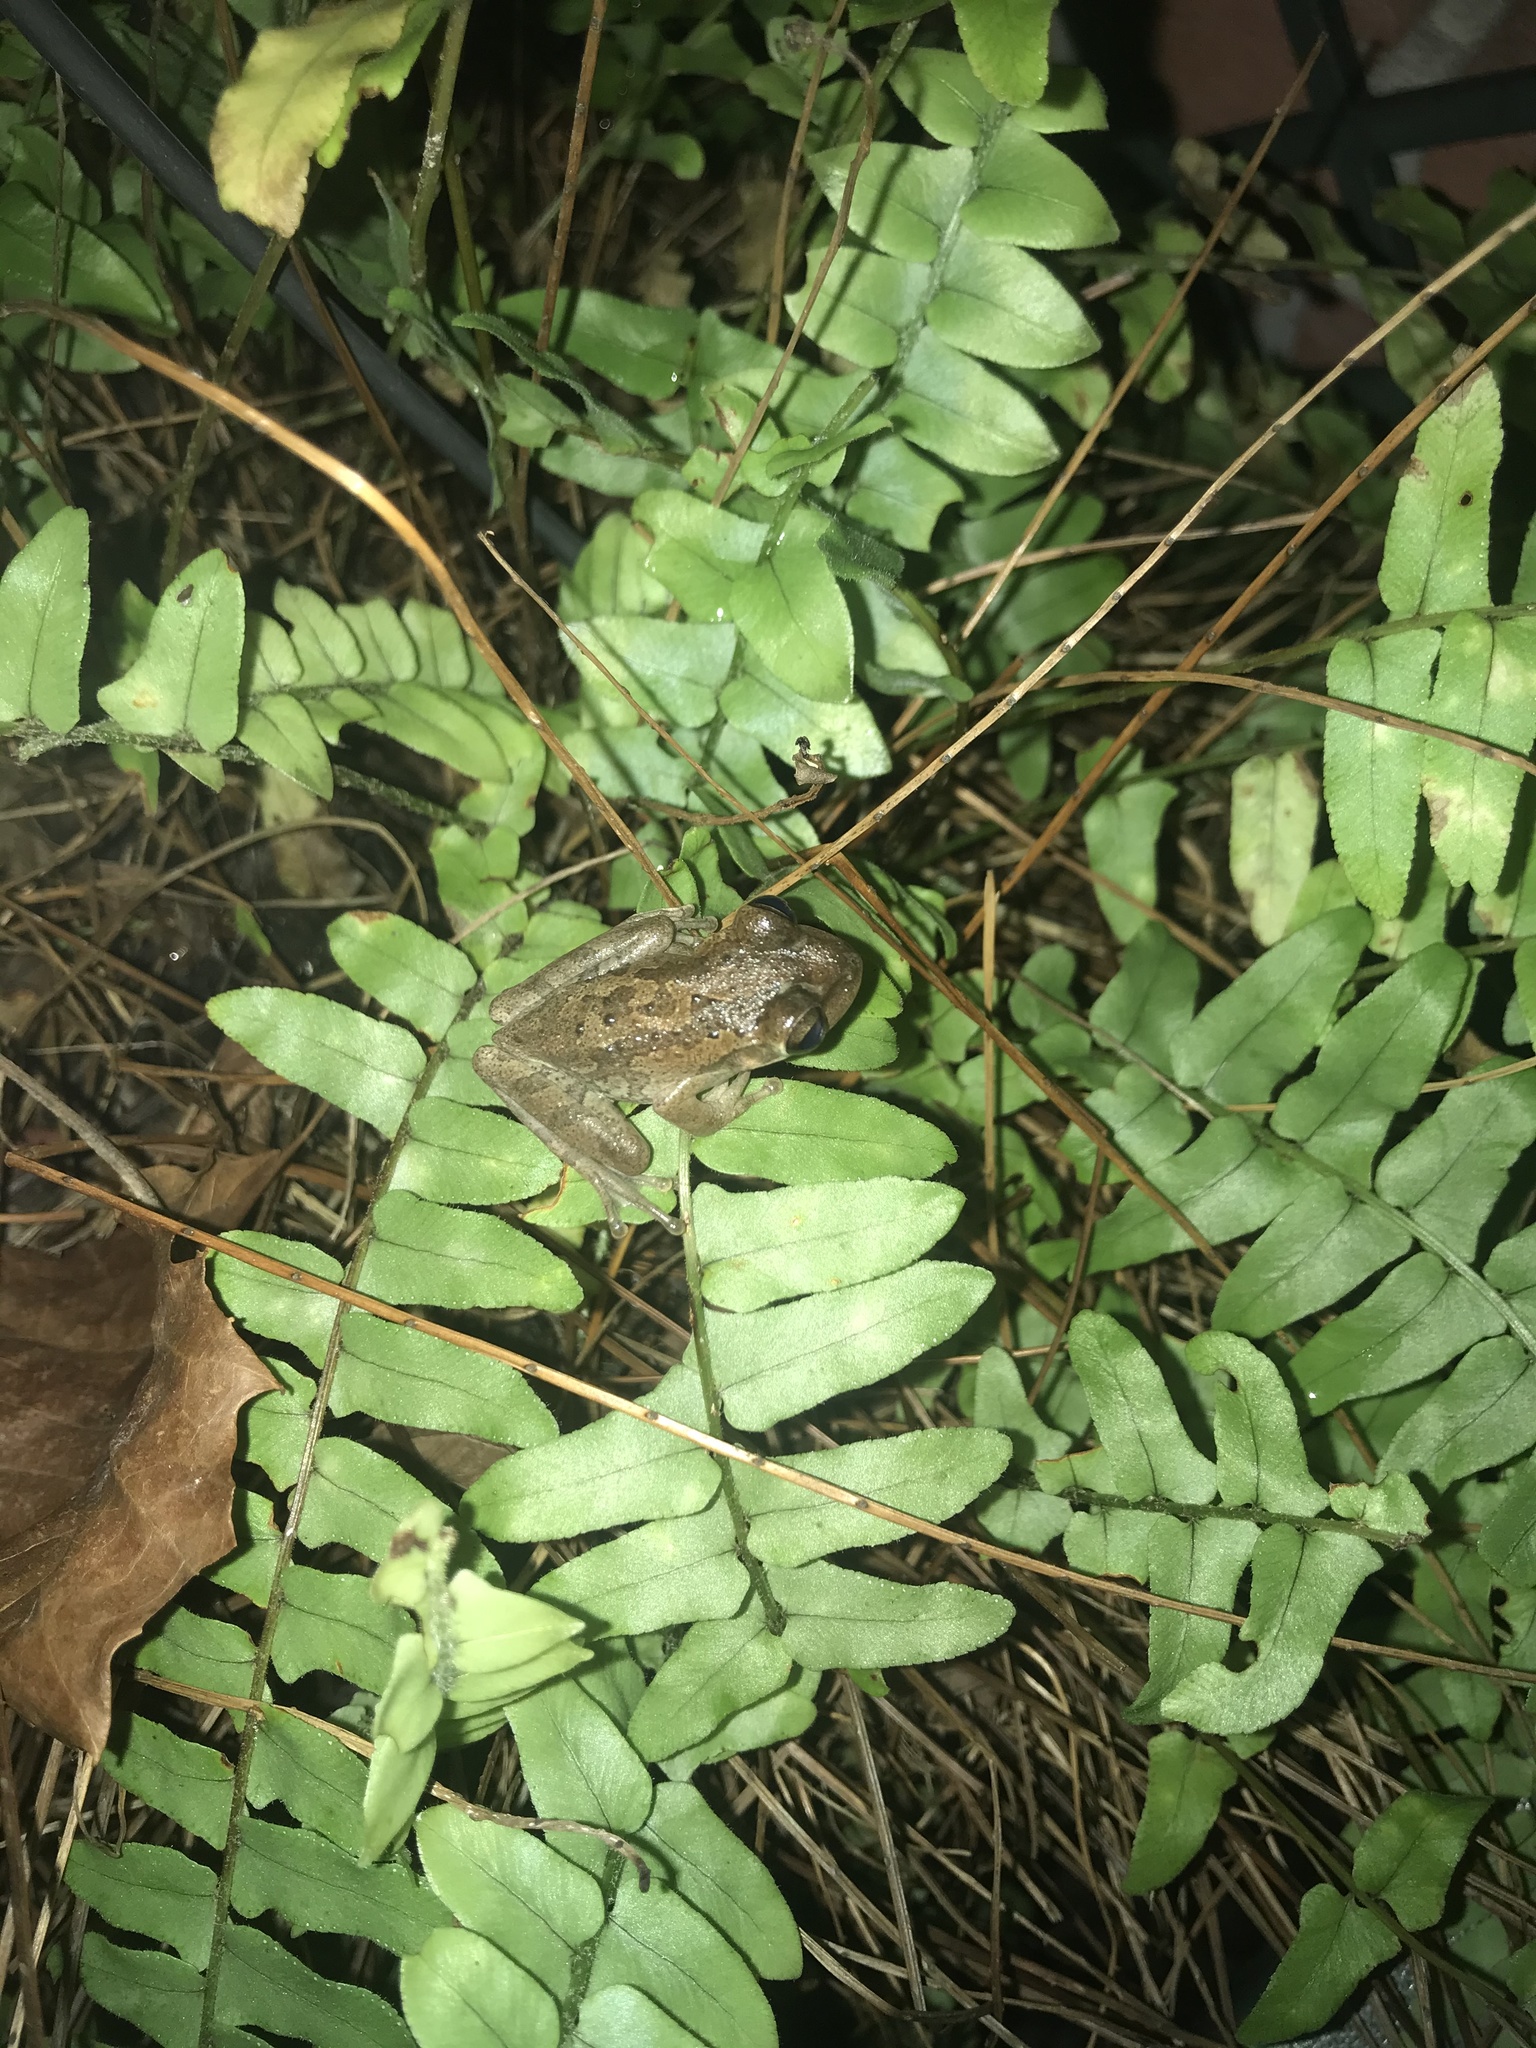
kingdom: Animalia
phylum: Chordata
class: Amphibia
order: Anura
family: Hylidae
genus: Osteopilus
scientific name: Osteopilus septentrionalis
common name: Cuban treefrog
